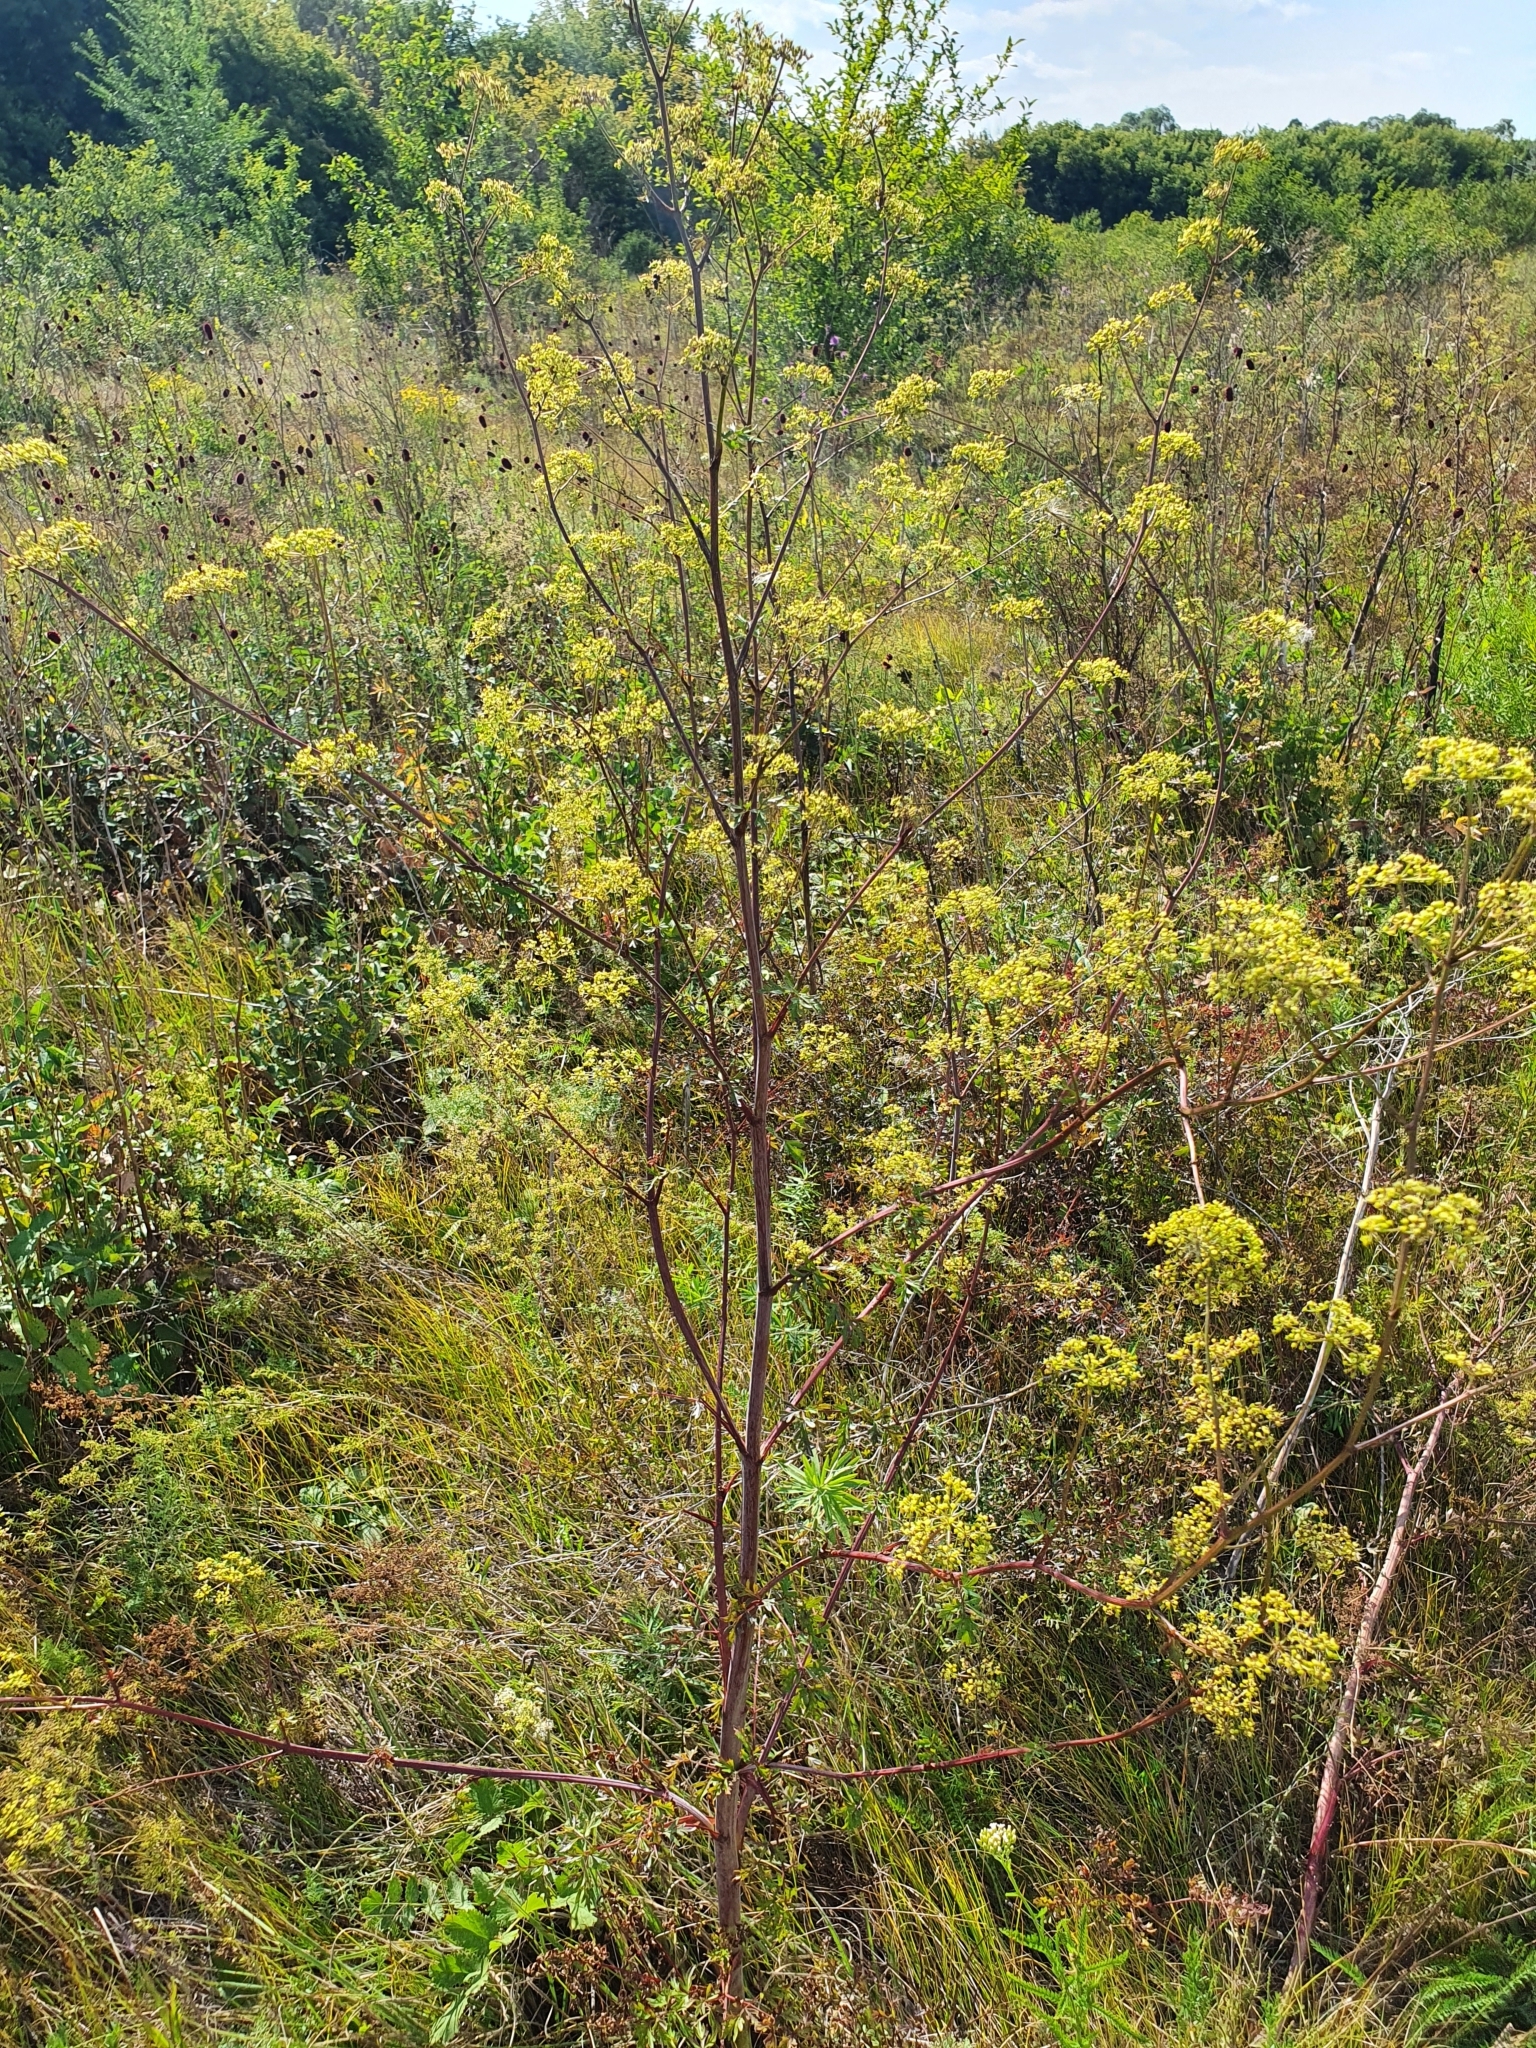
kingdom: Plantae
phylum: Tracheophyta
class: Magnoliopsida
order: Apiales
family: Apiaceae
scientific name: Apiaceae
